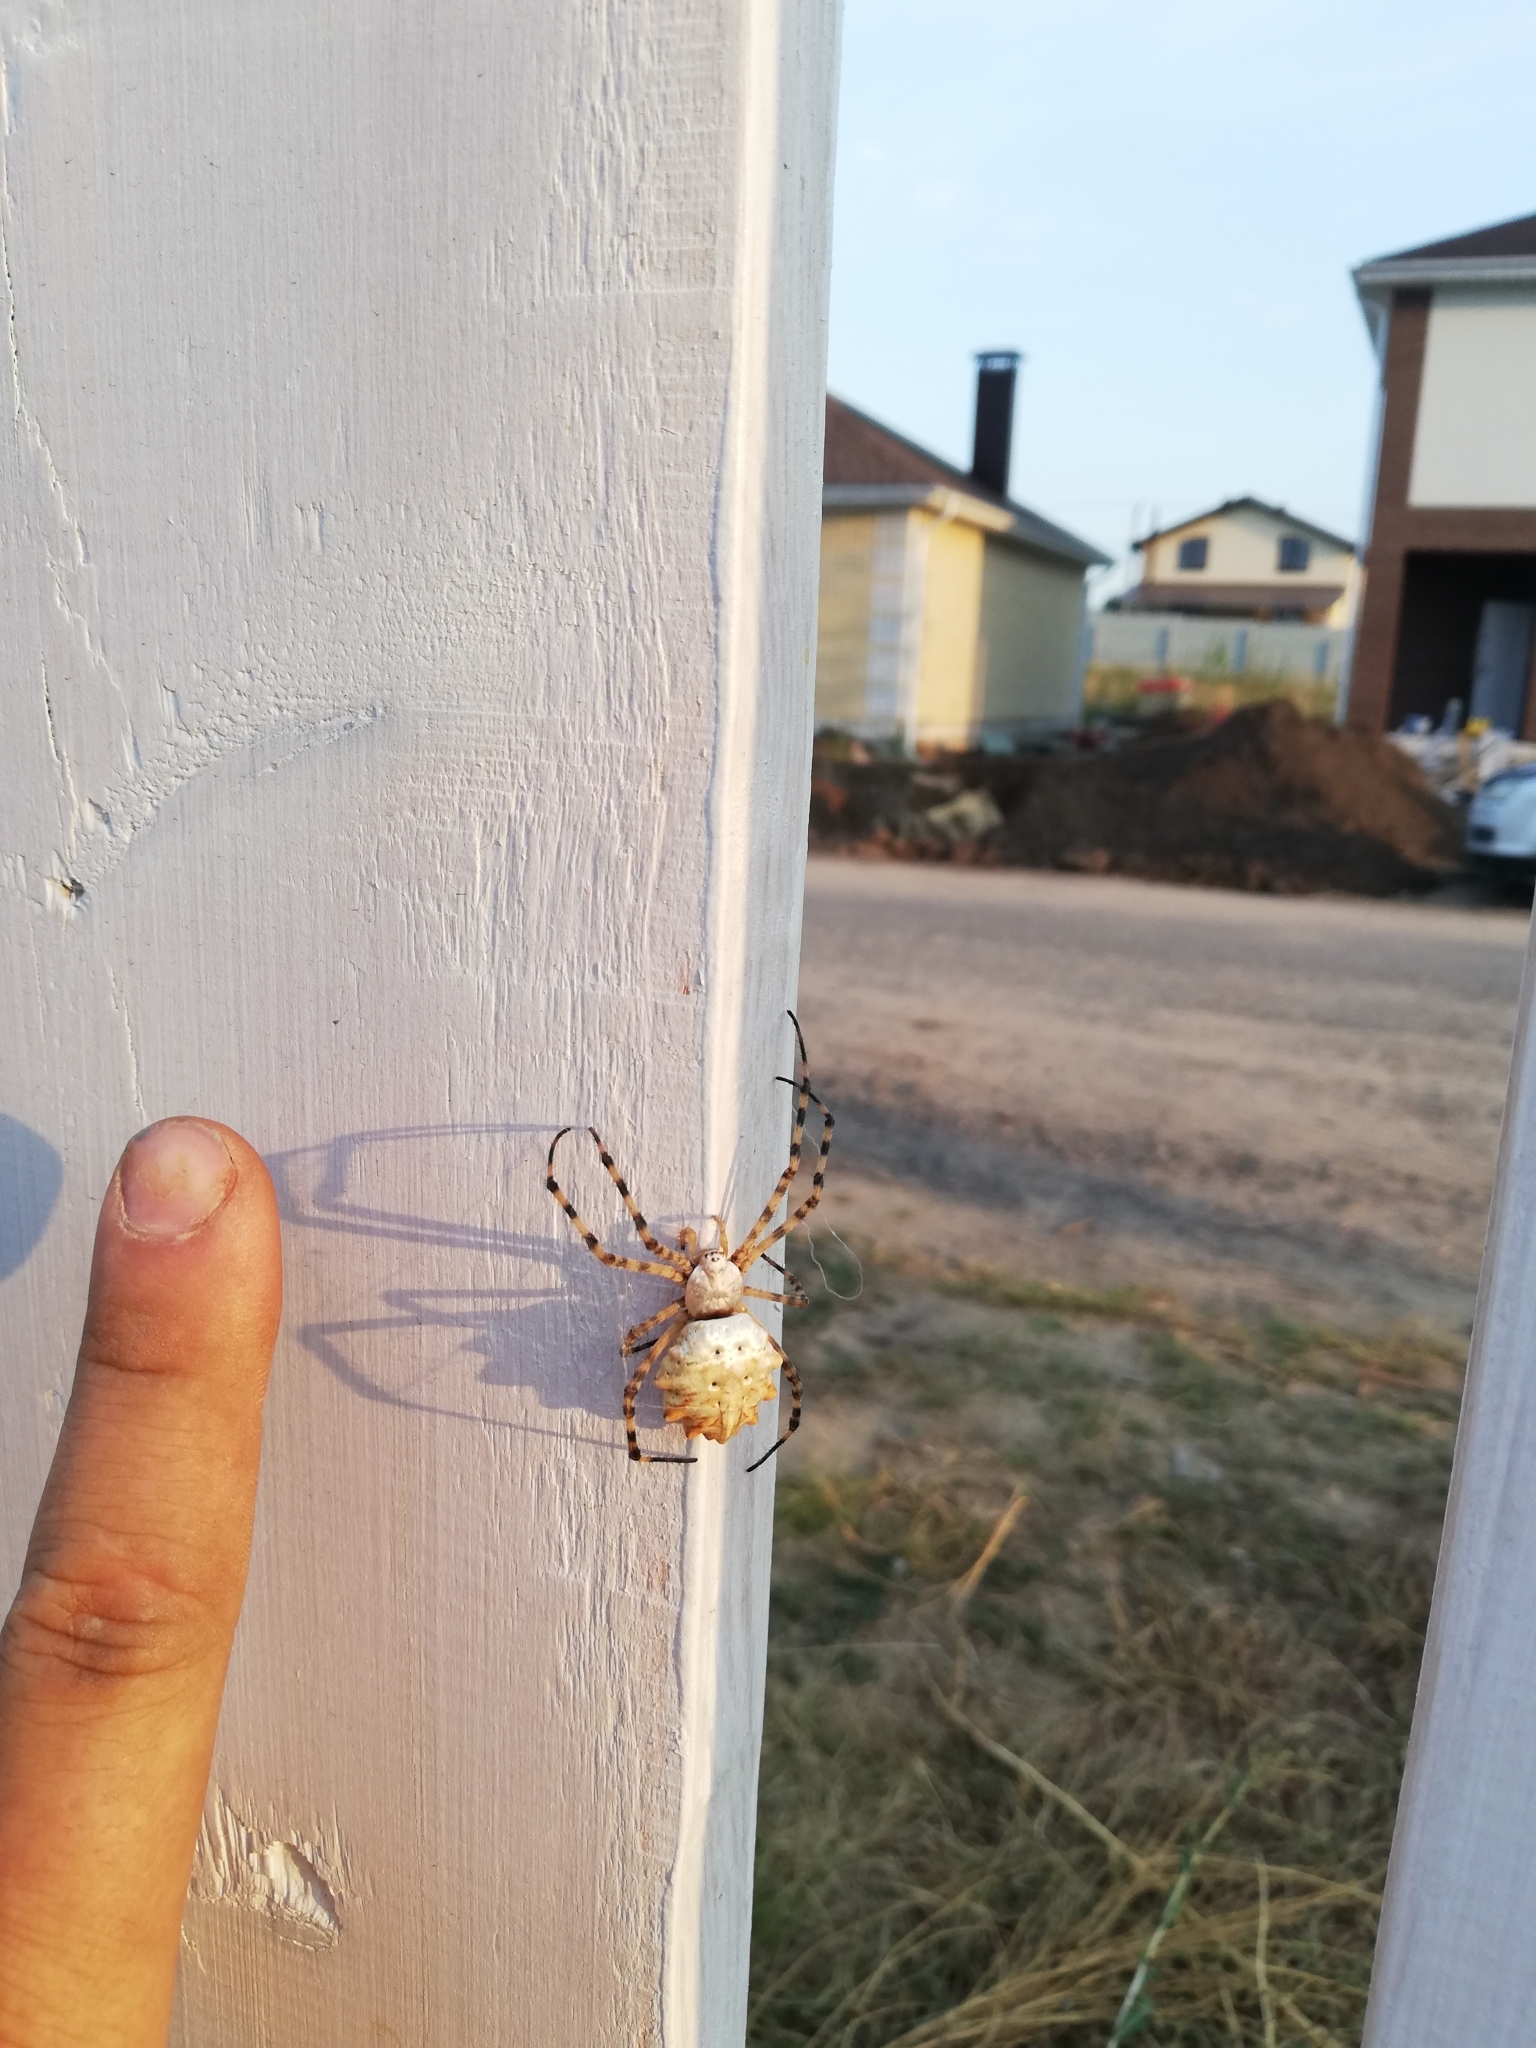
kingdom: Animalia
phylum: Arthropoda
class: Arachnida
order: Araneae
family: Araneidae
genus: Argiope
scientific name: Argiope lobata
